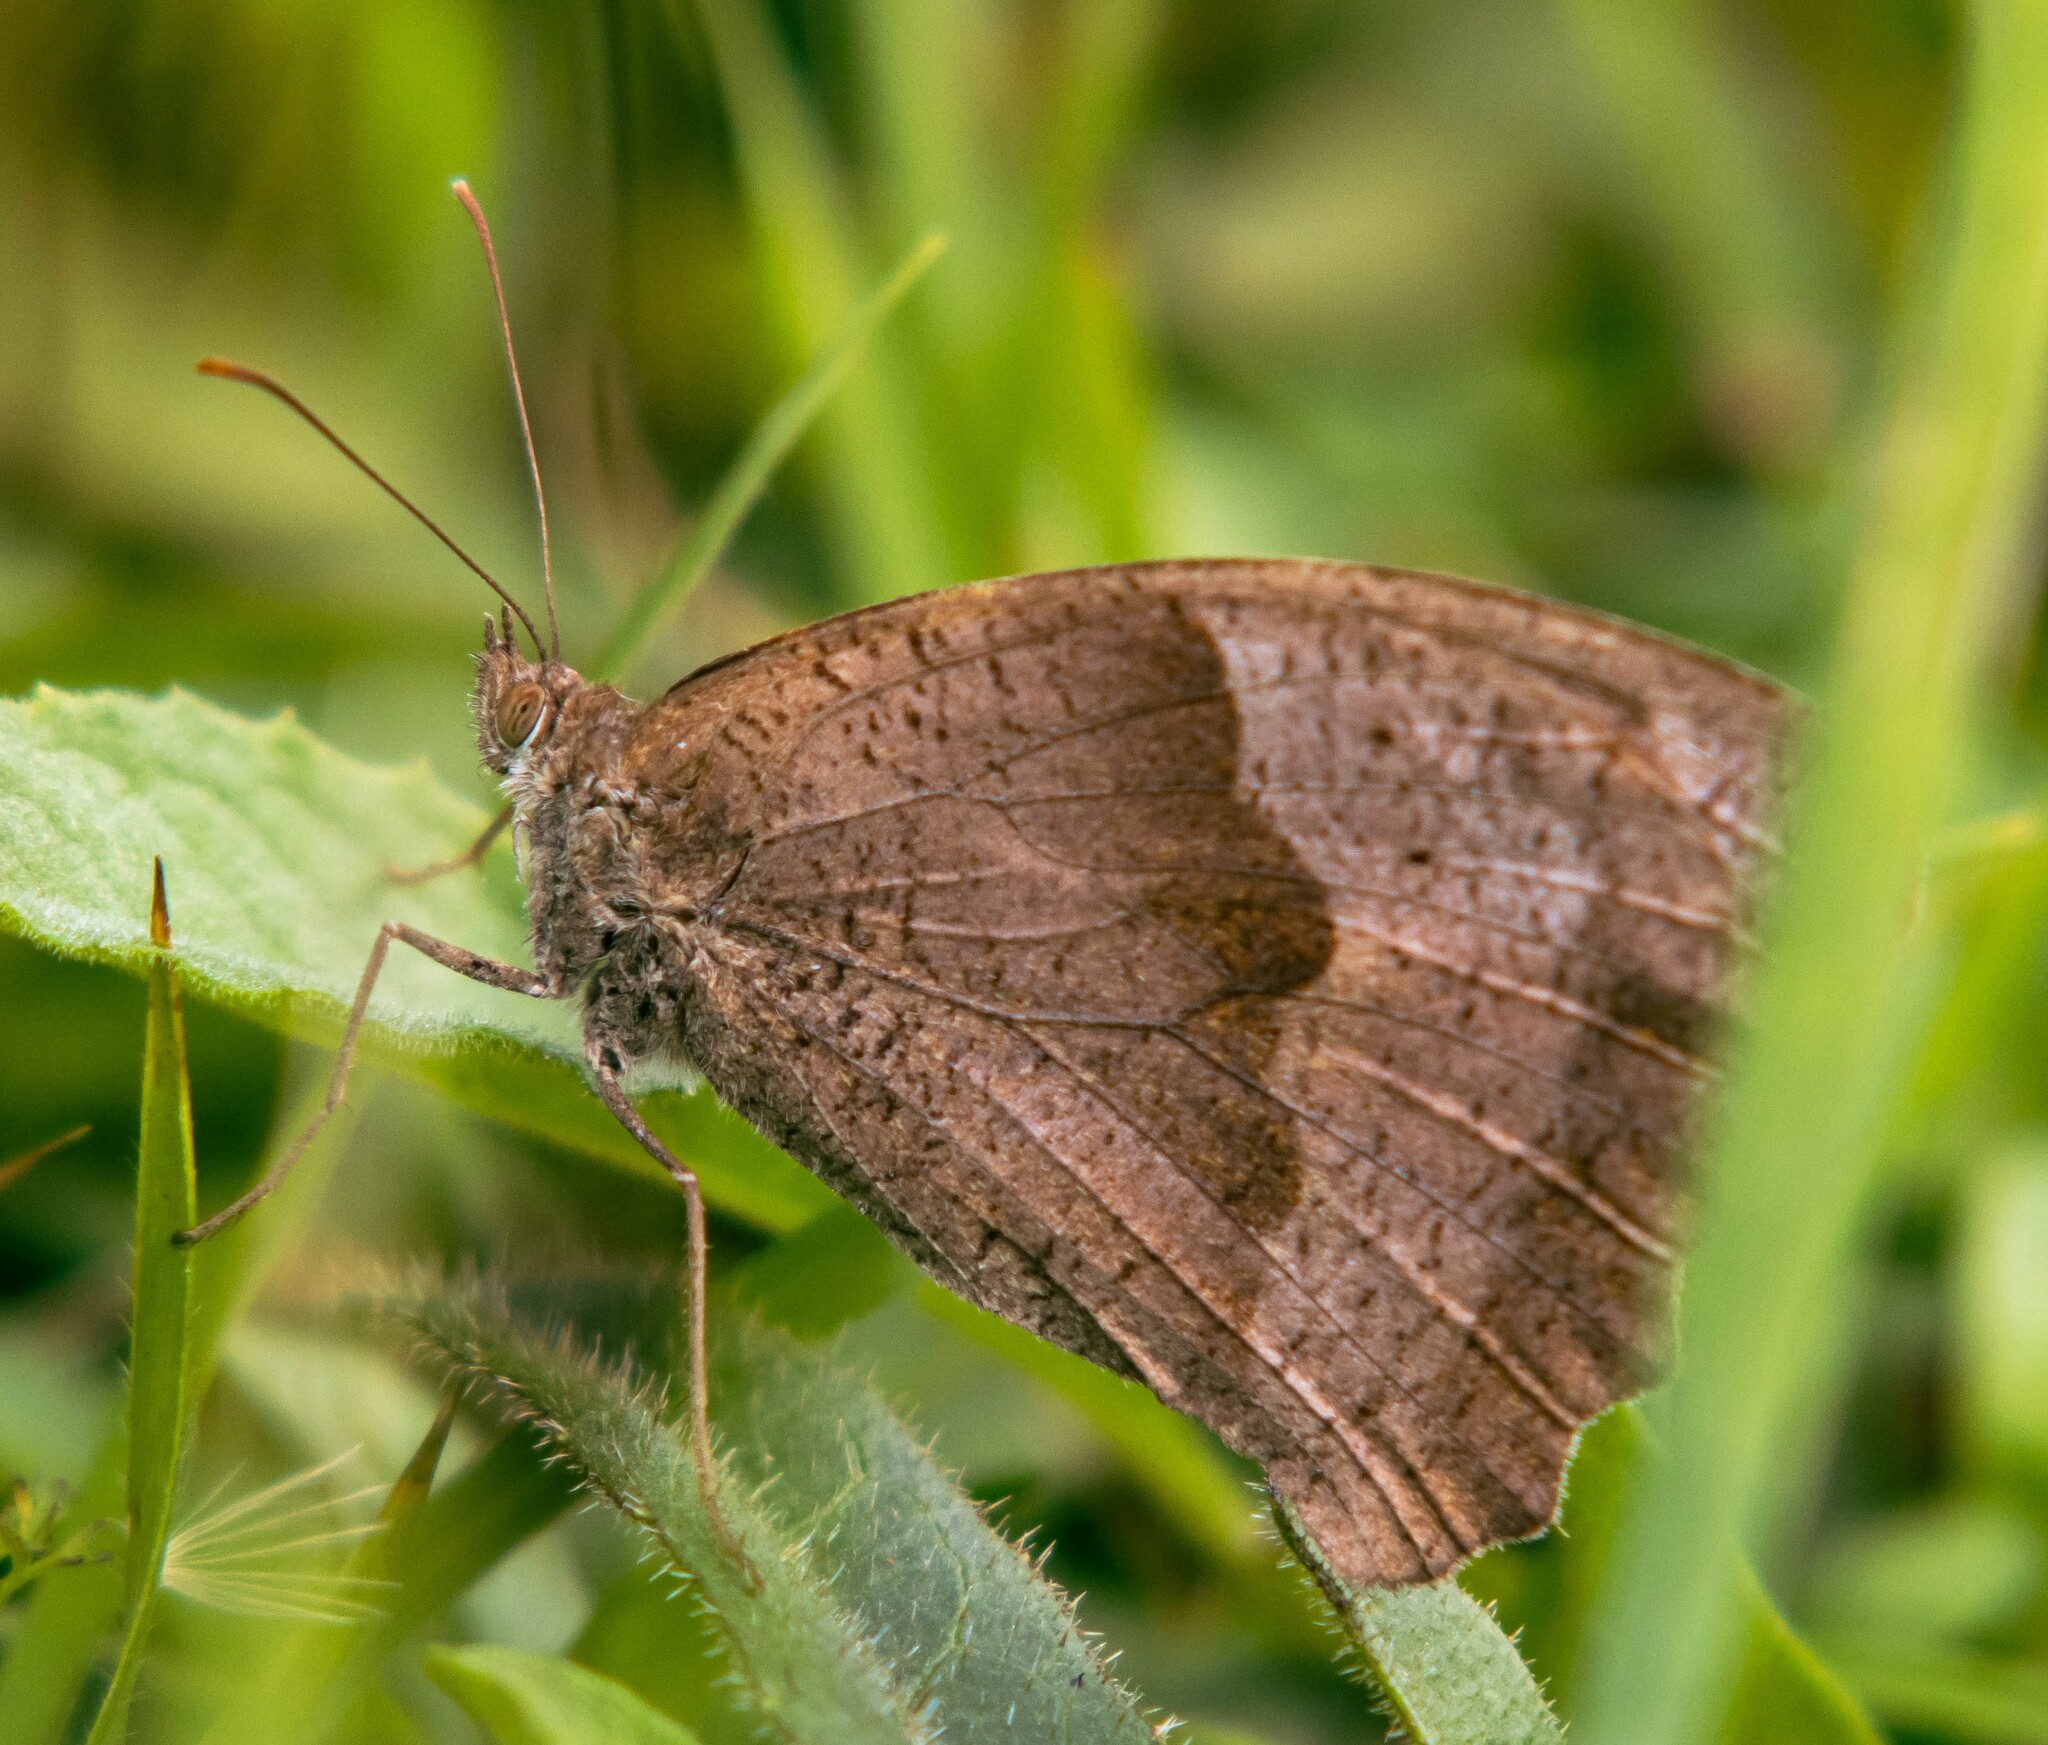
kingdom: Animalia
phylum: Arthropoda
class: Insecta
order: Lepidoptera
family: Nymphalidae
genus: Maniola
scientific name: Maniola jurtina
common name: Meadow brown
